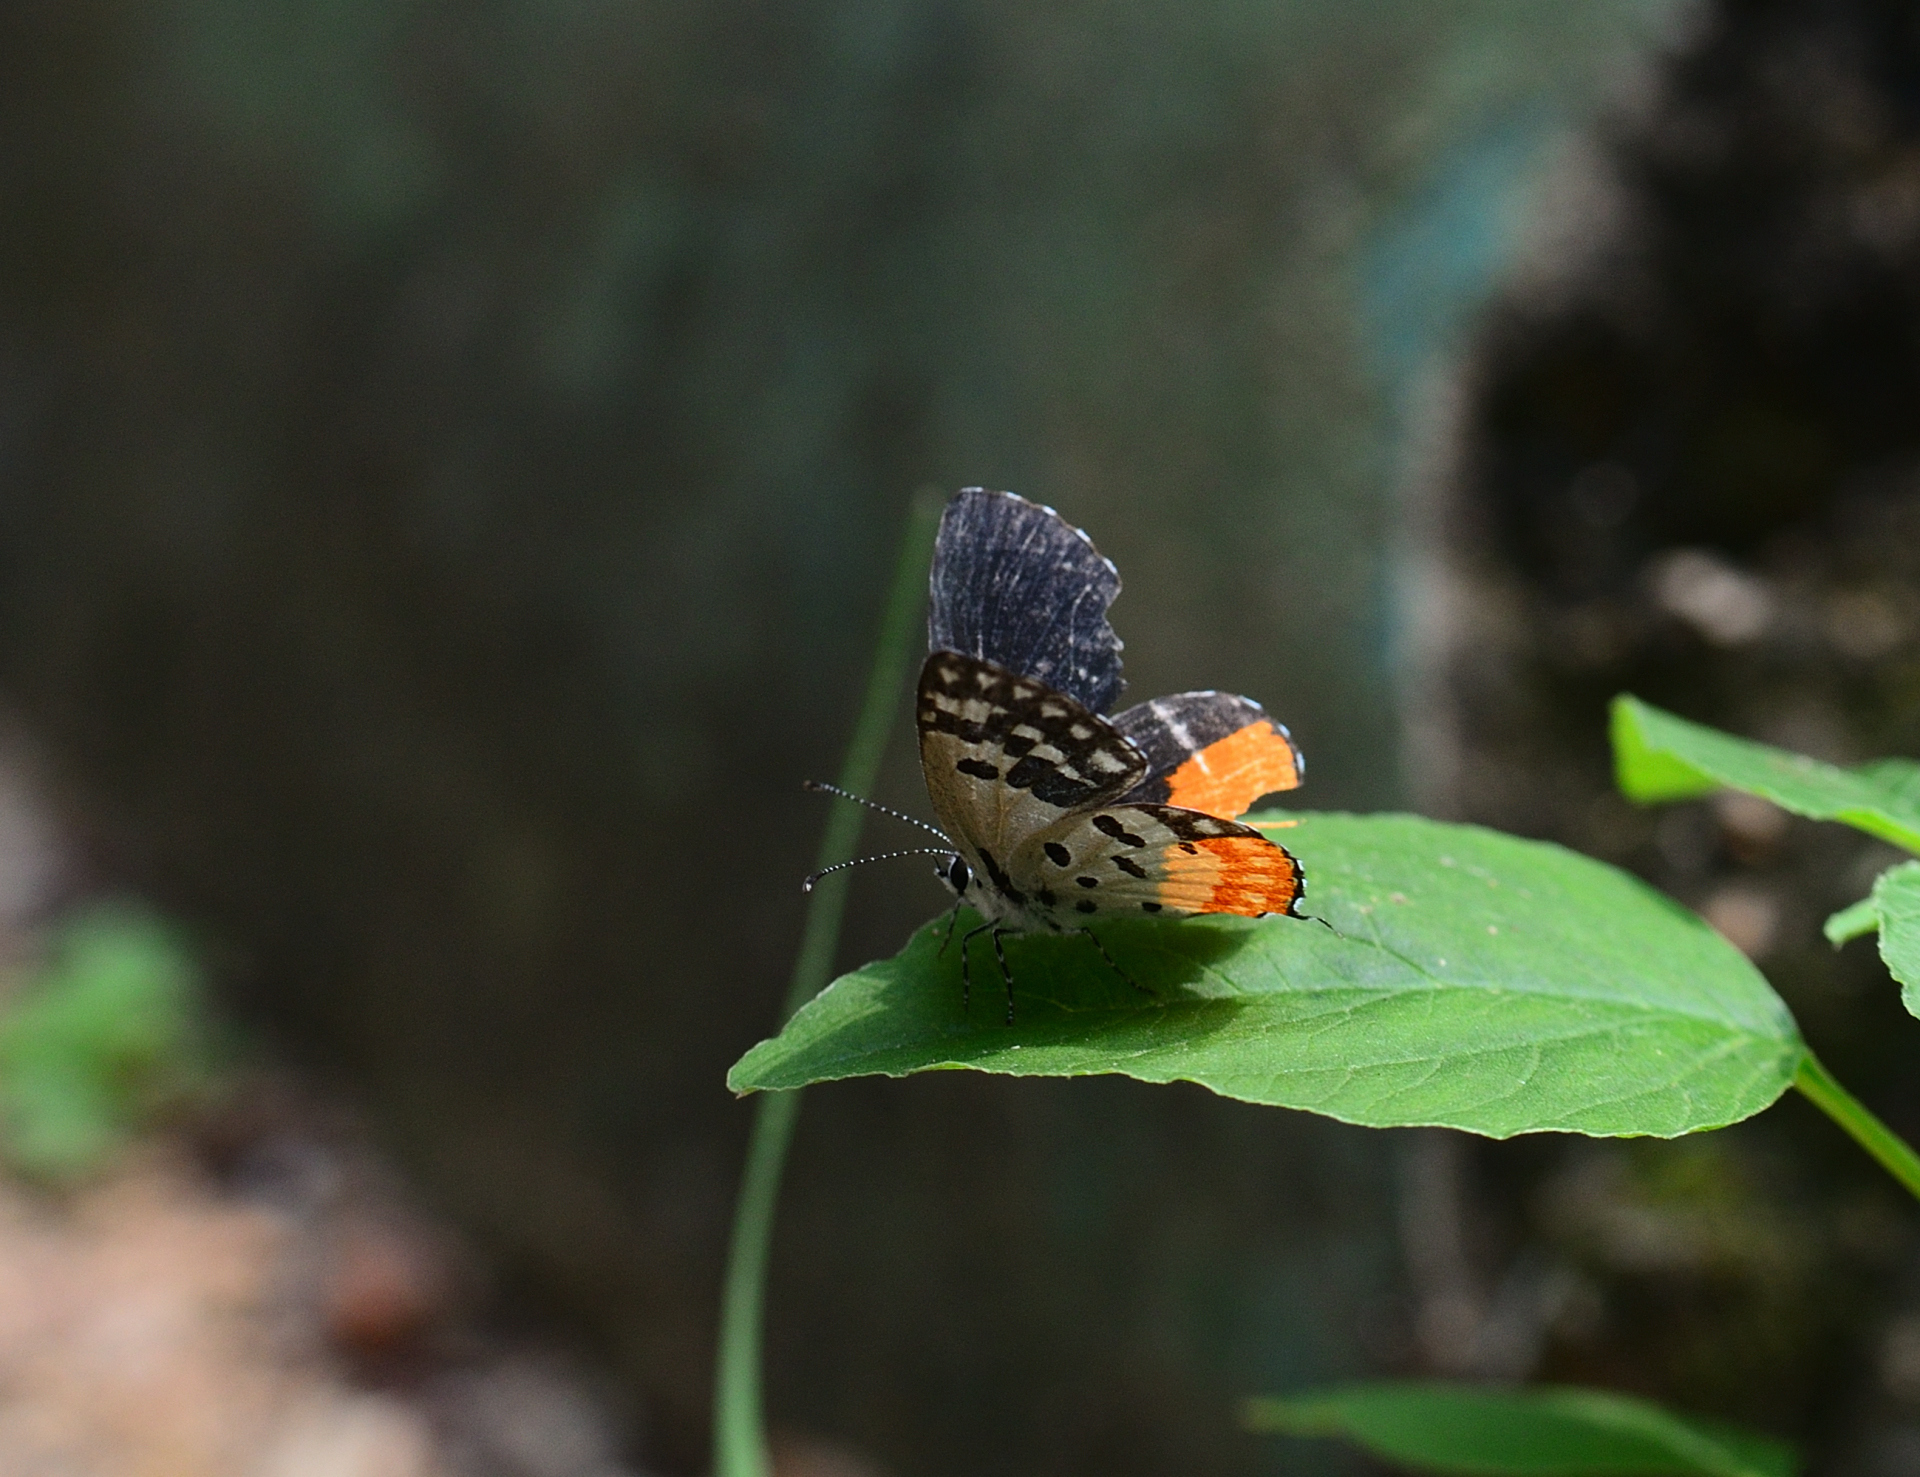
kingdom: Animalia
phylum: Arthropoda
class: Insecta
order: Lepidoptera
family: Lycaenidae
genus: Talicada
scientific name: Talicada nyseus
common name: Red pierrot
